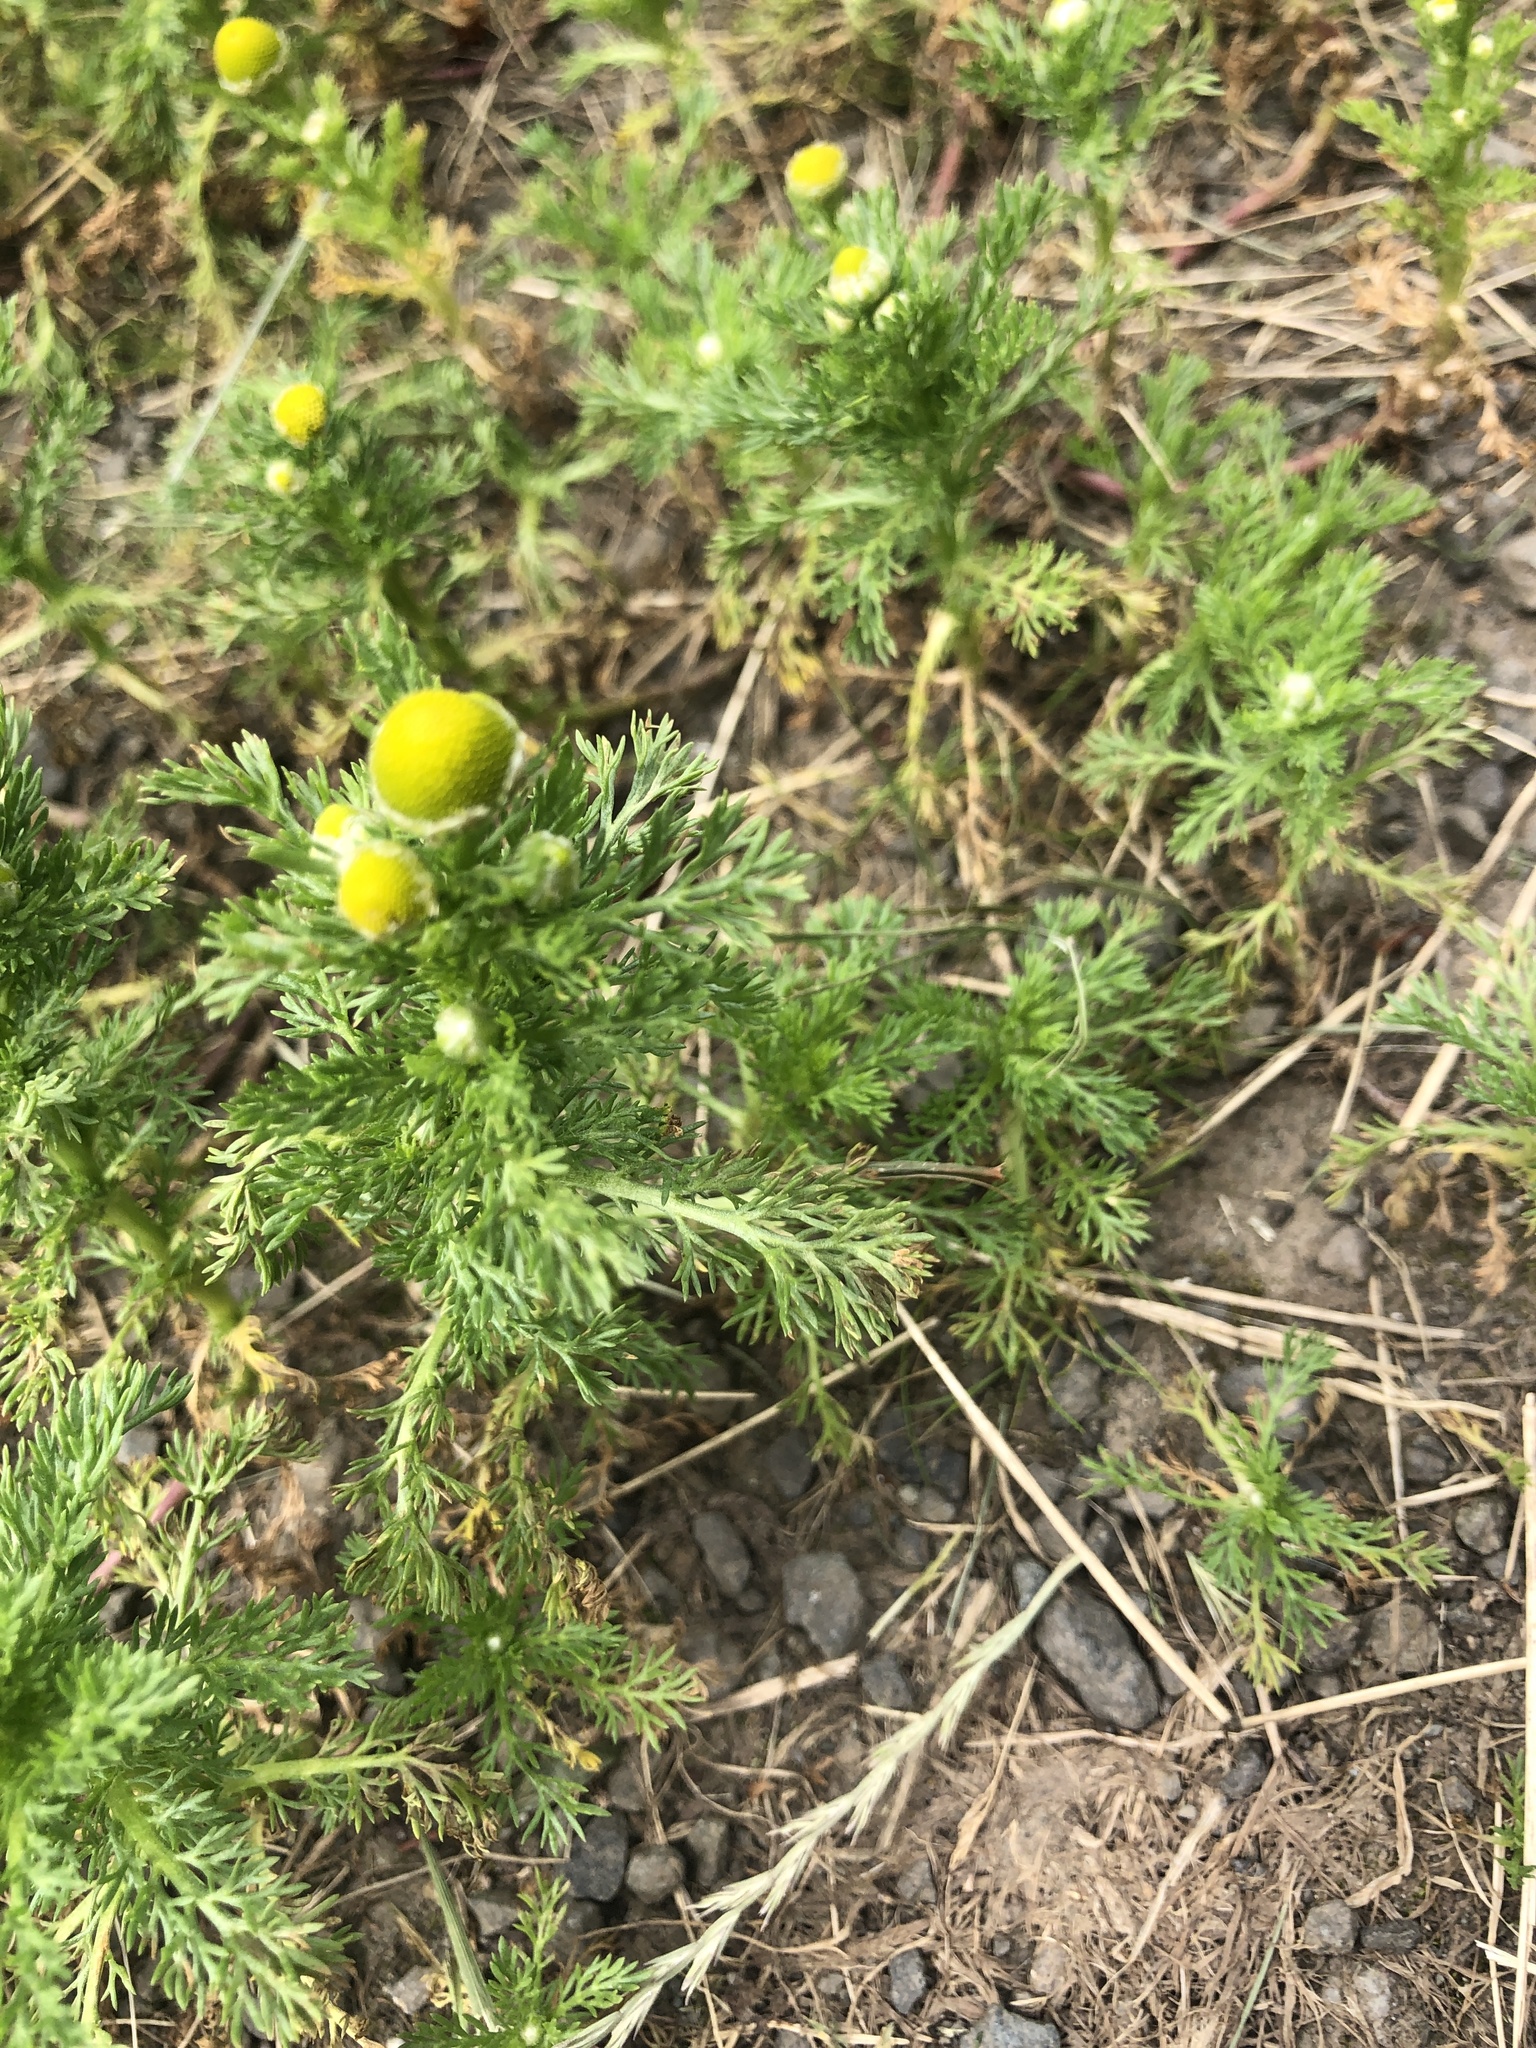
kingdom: Plantae
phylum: Tracheophyta
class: Magnoliopsida
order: Asterales
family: Asteraceae
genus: Matricaria
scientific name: Matricaria discoidea
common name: Disc mayweed
